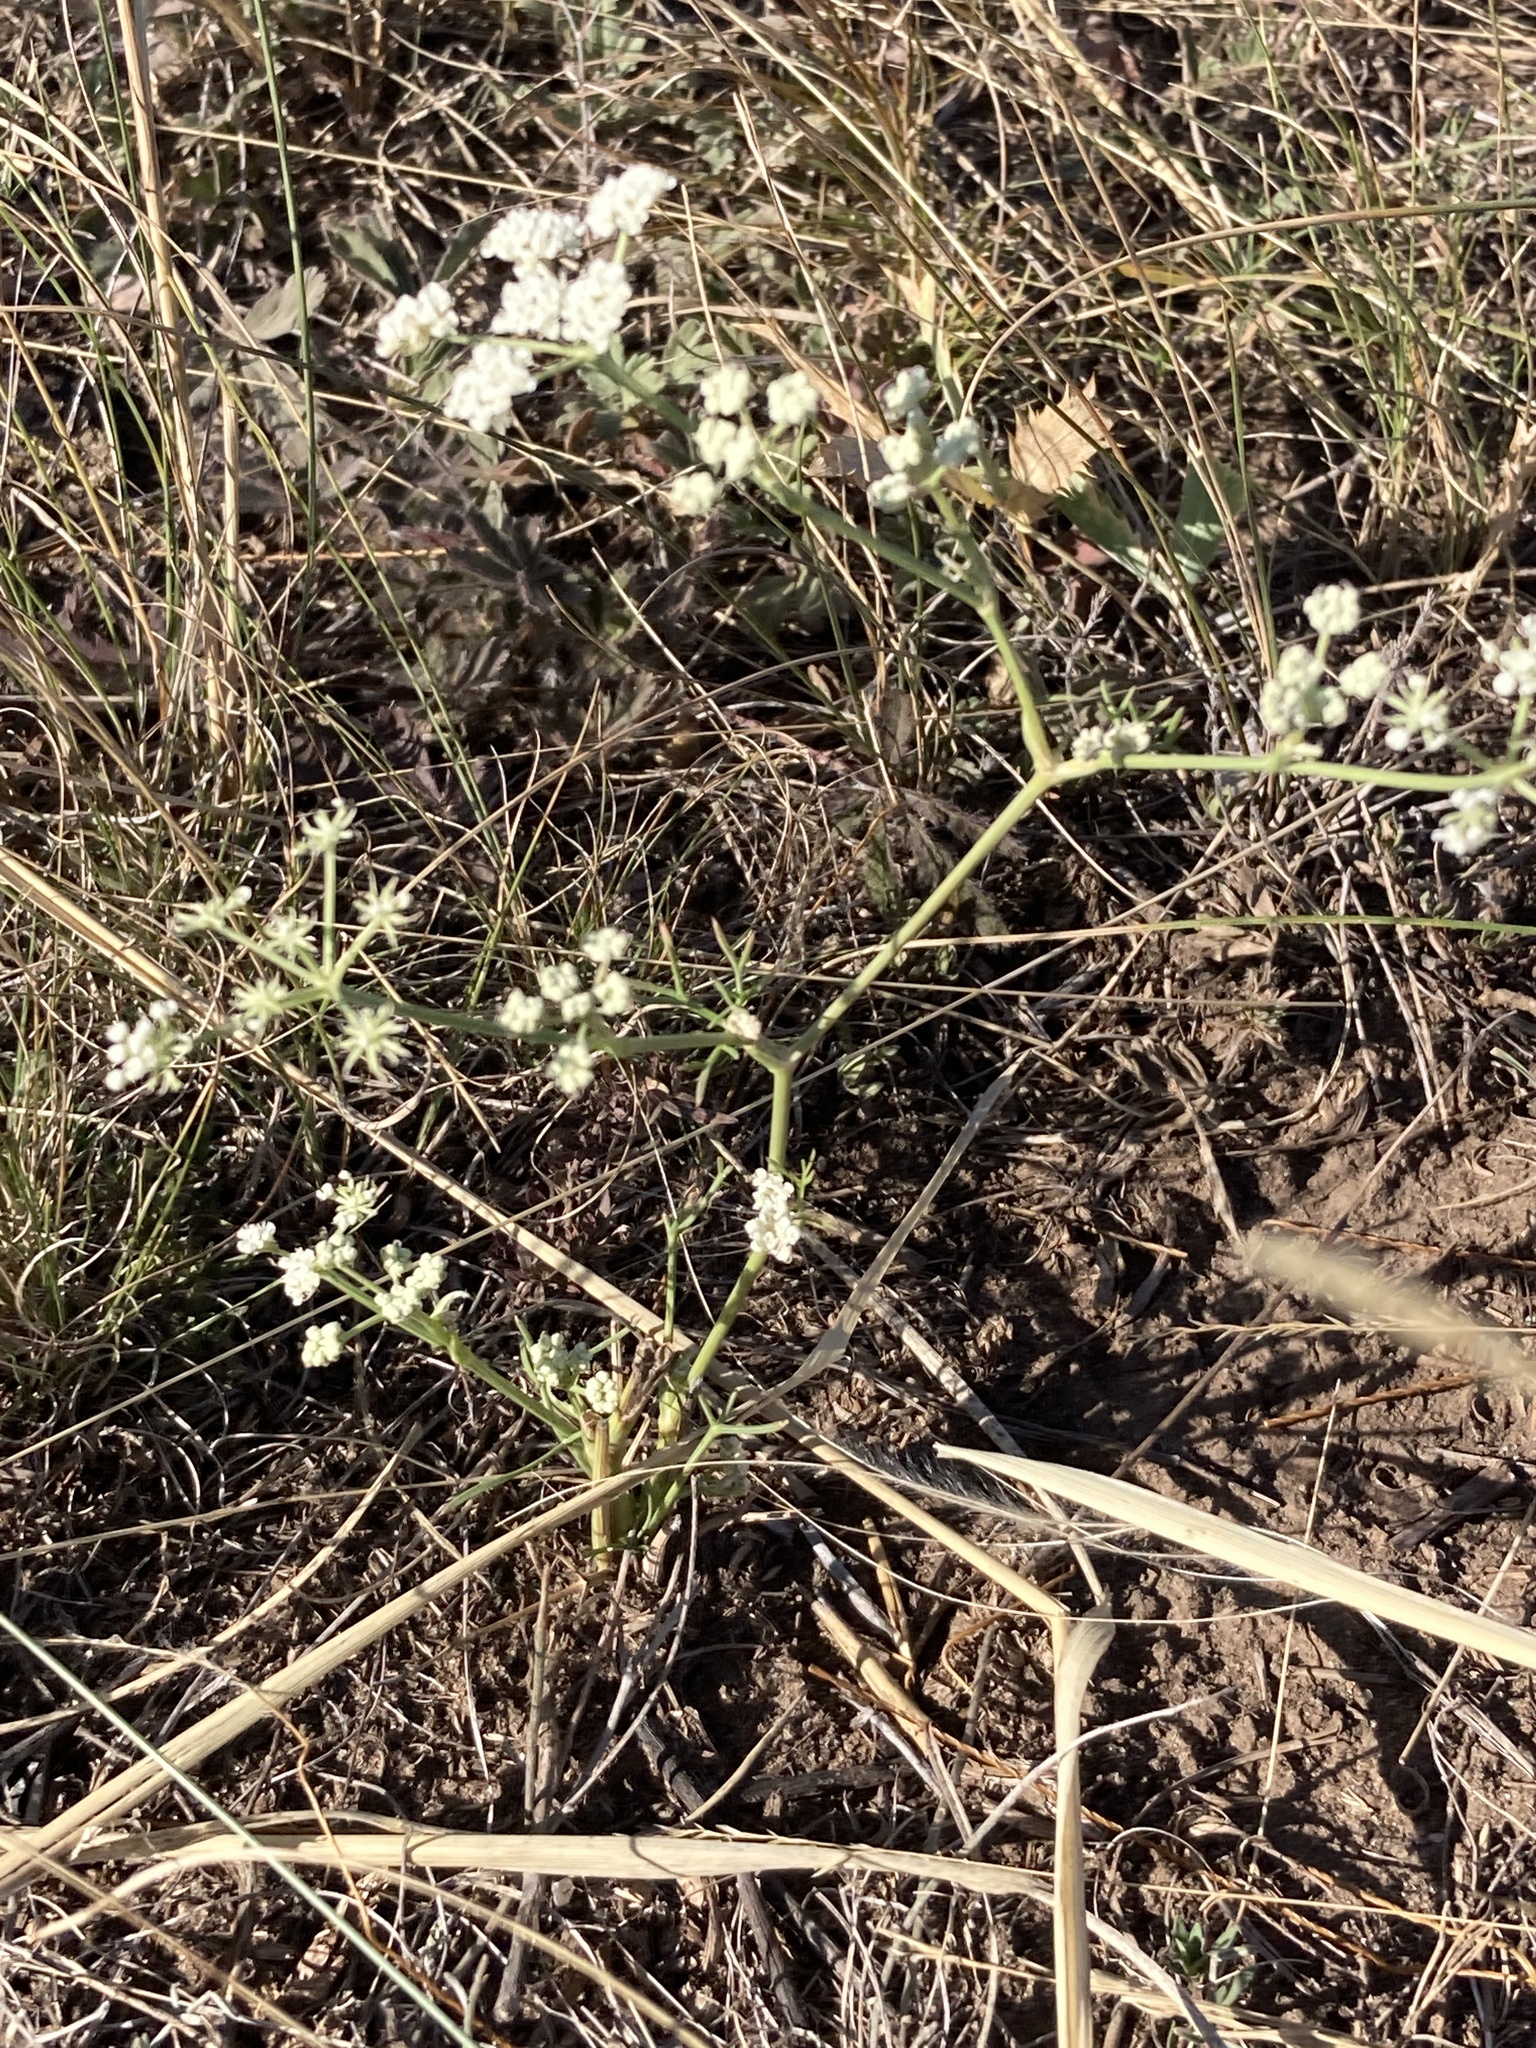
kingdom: Plantae
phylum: Tracheophyta
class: Magnoliopsida
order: Apiales
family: Apiaceae
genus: Seseli
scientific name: Seseli arenarium
